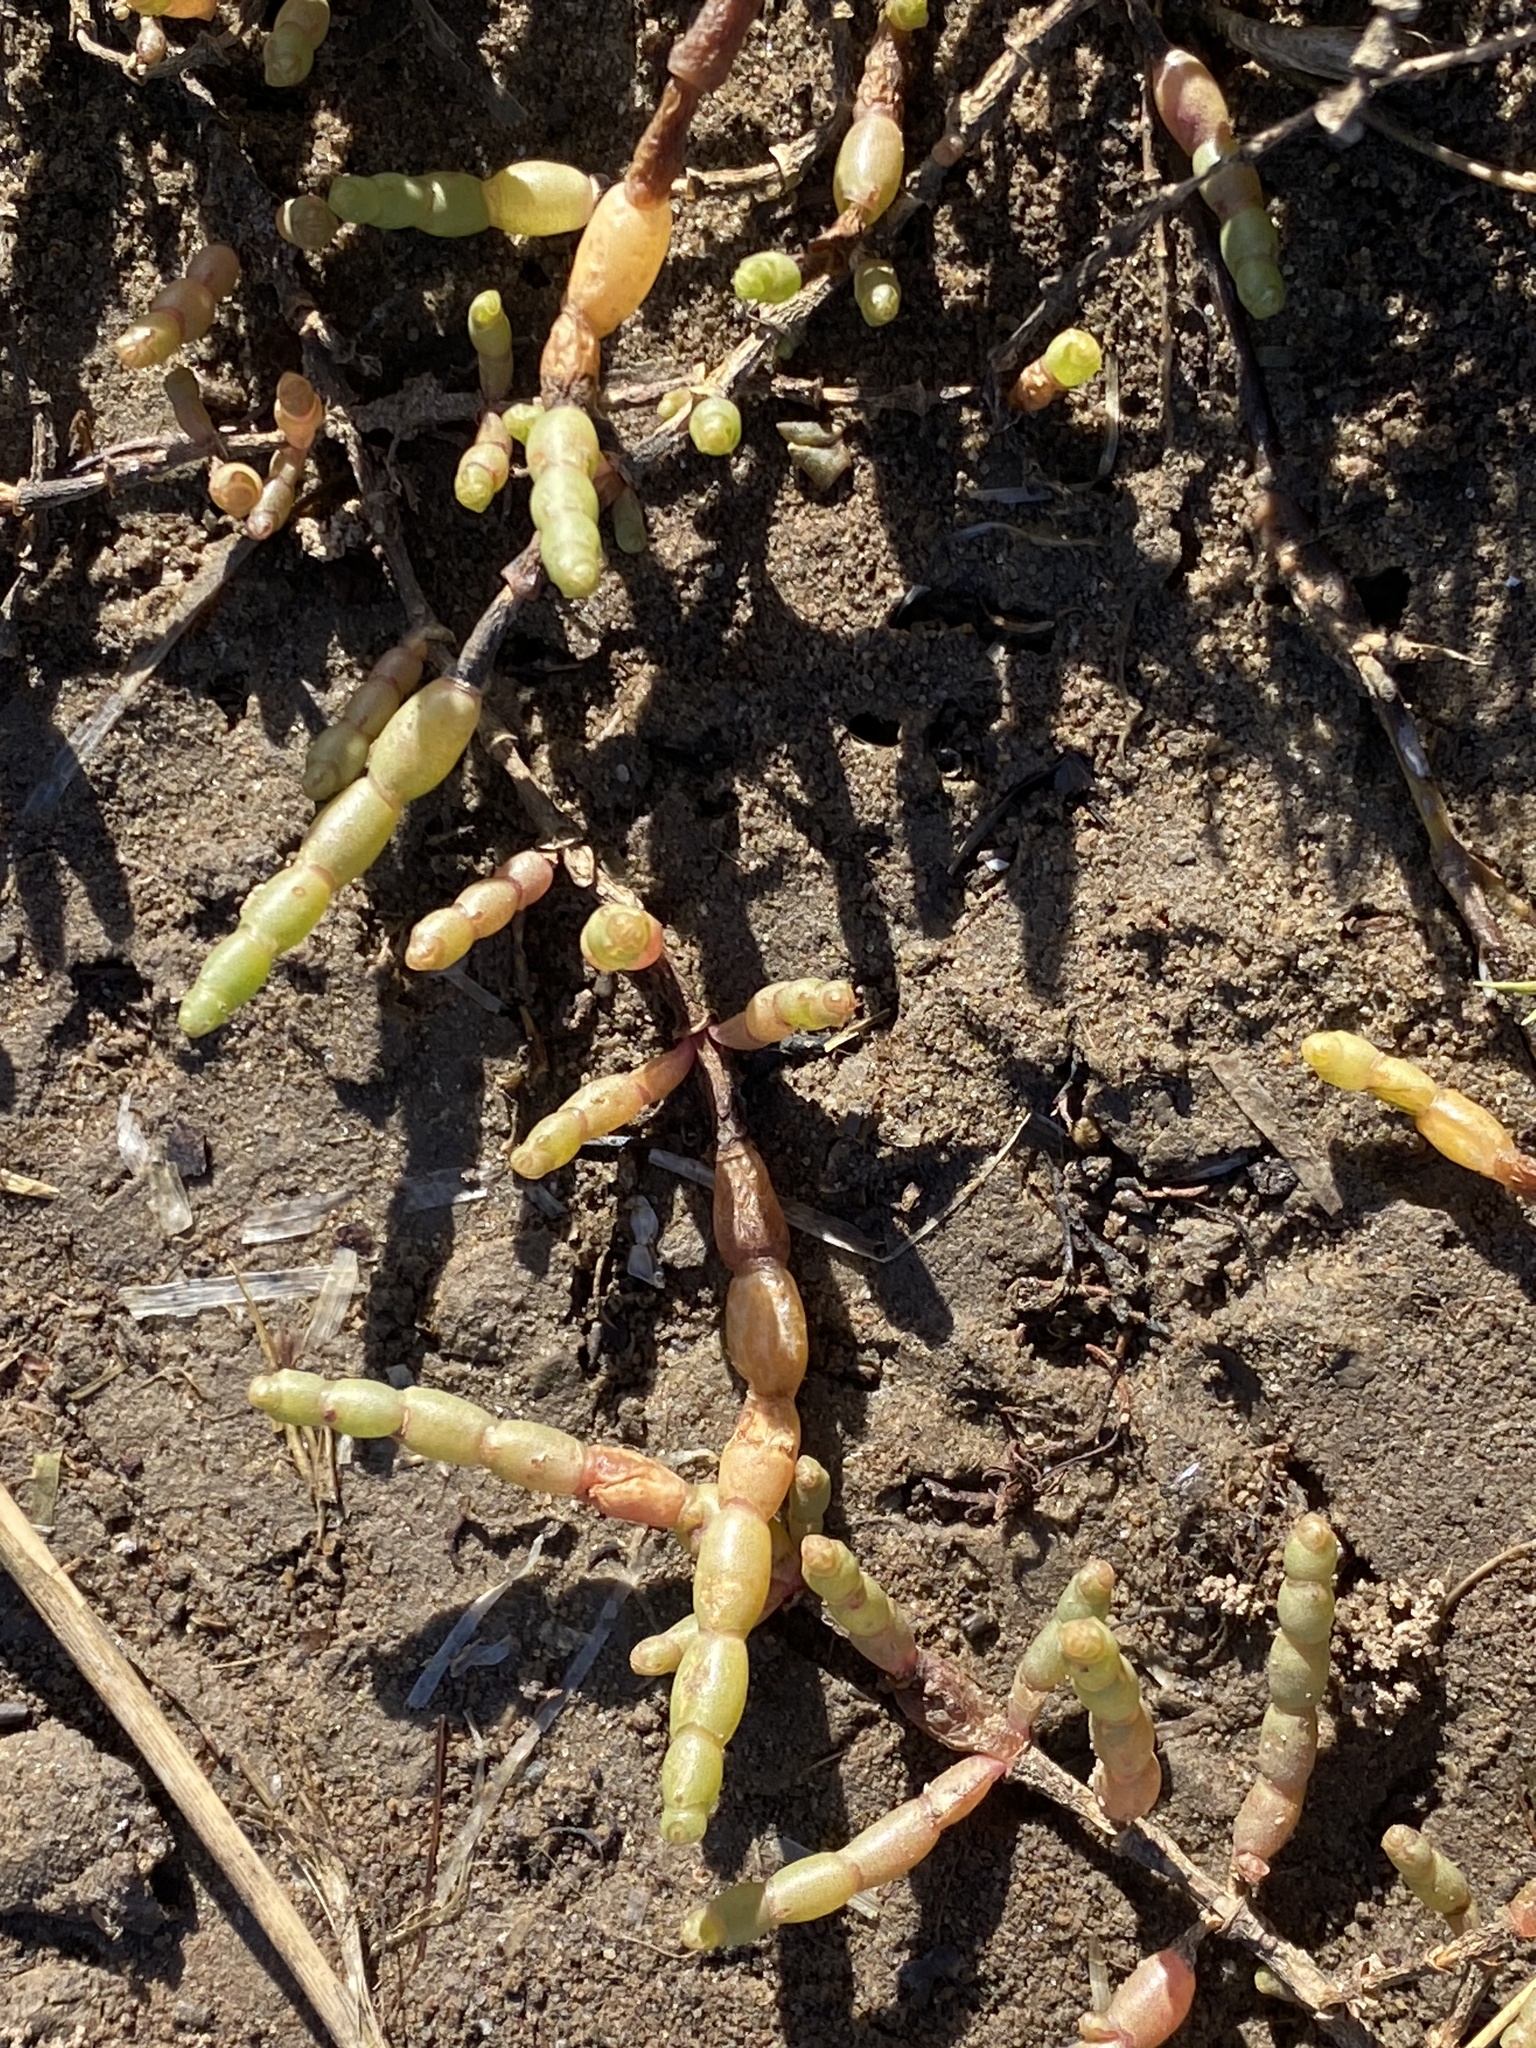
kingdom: Plantae
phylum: Tracheophyta
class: Magnoliopsida
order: Caryophyllales
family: Amaranthaceae
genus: Salicornia
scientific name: Salicornia tegetaria
